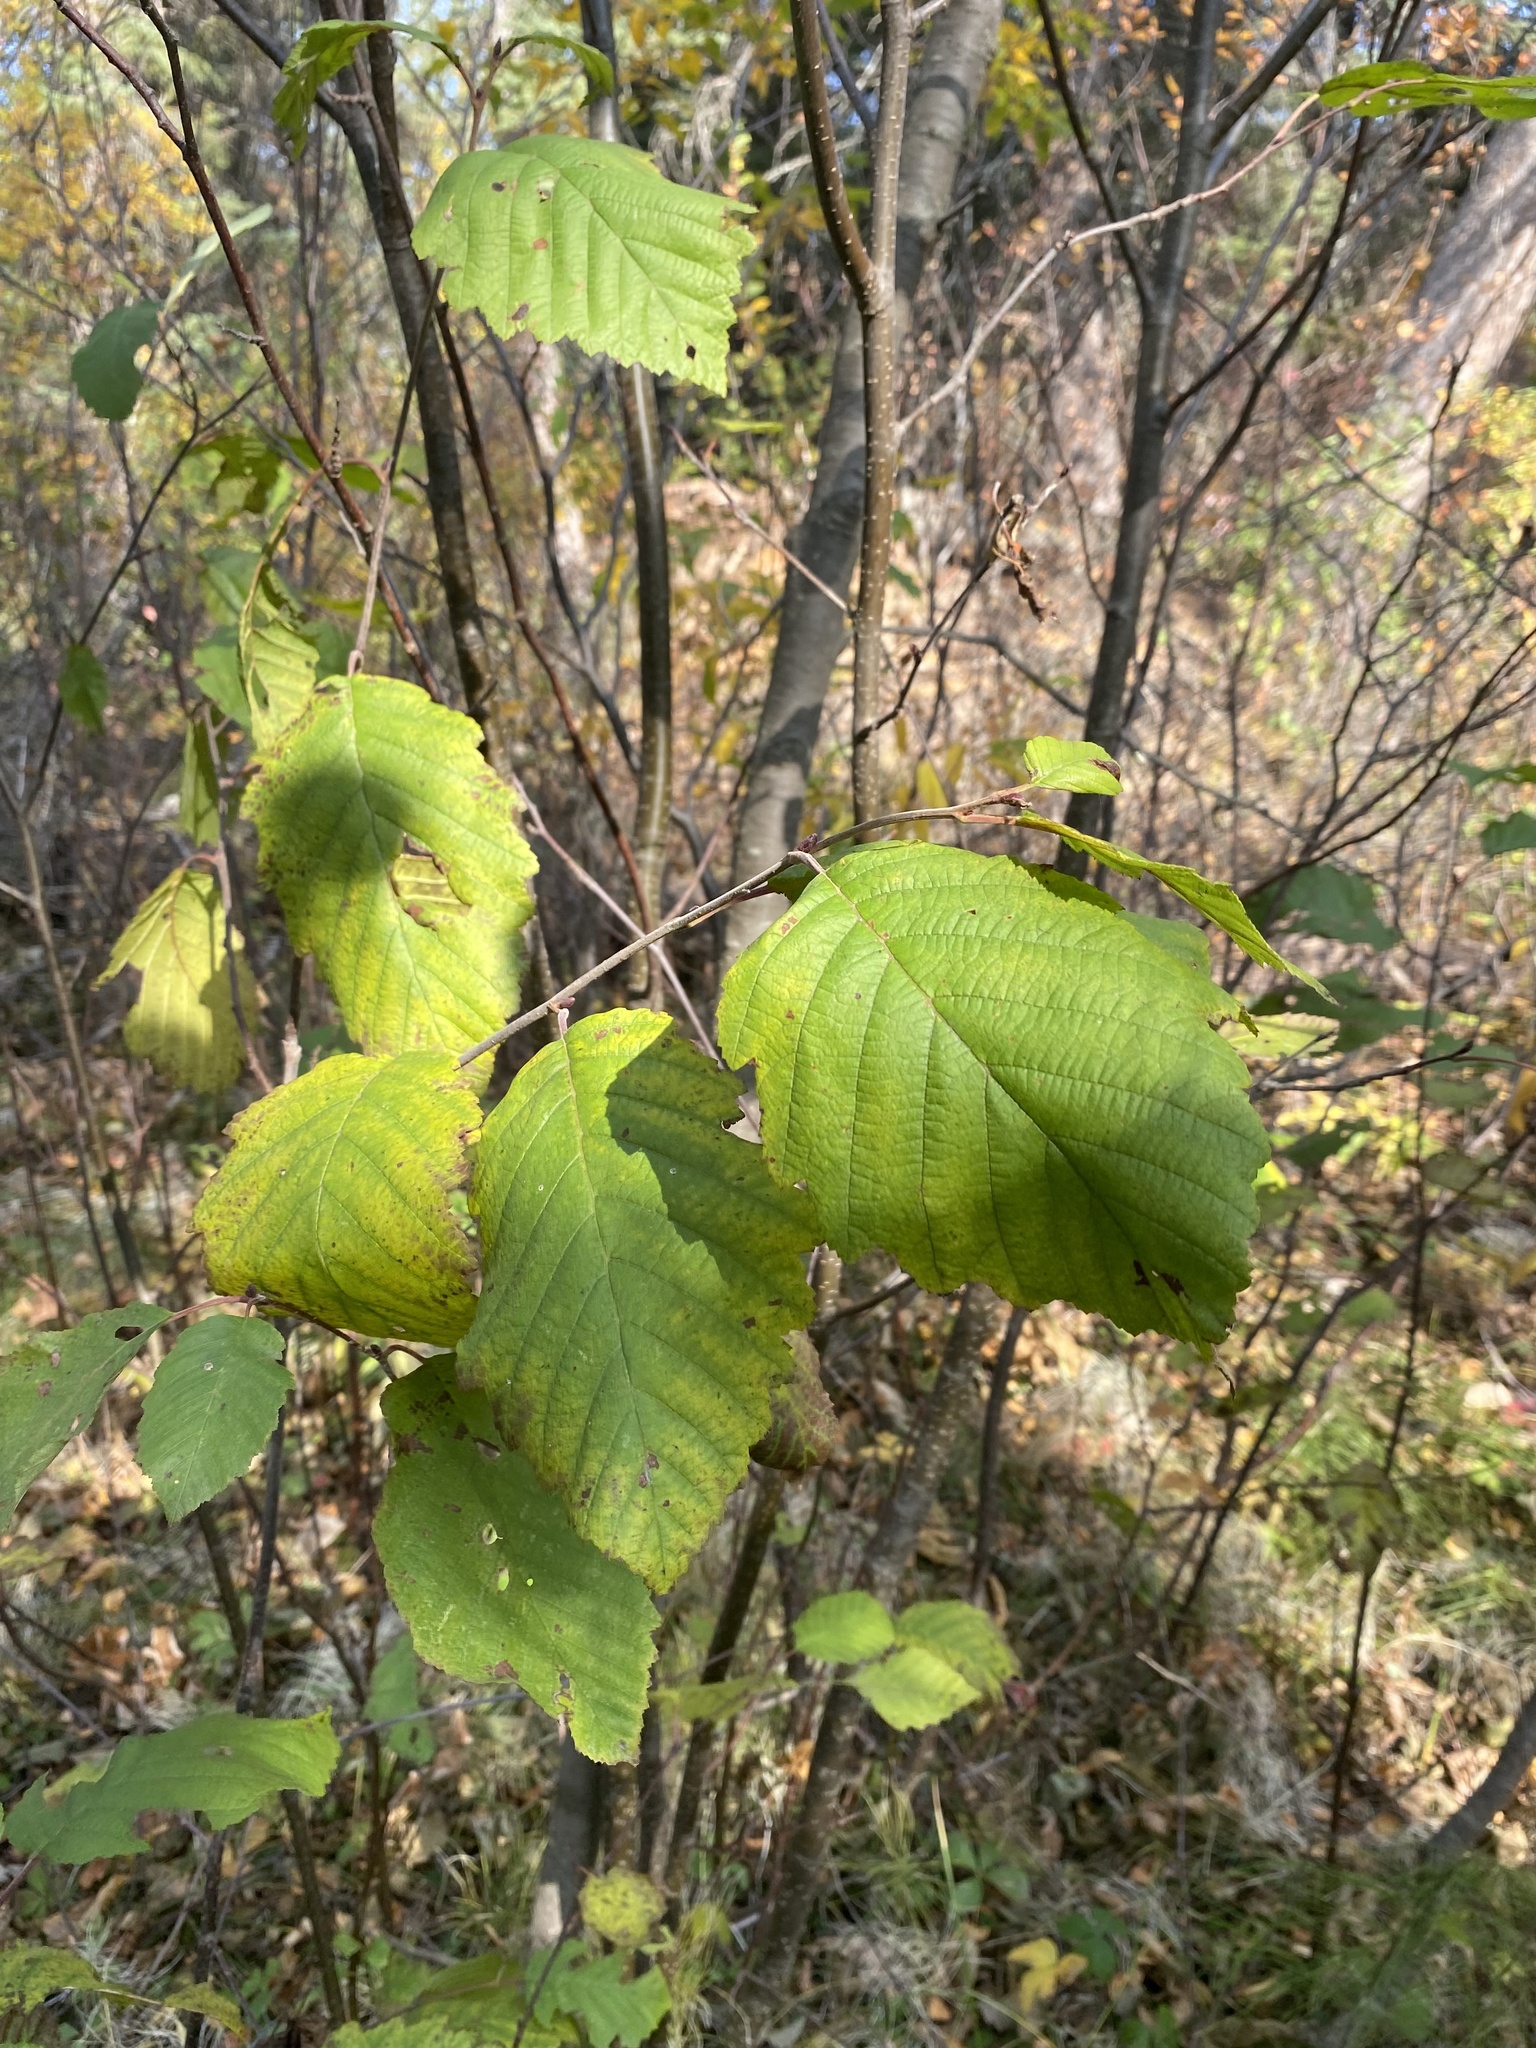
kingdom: Plantae
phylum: Tracheophyta
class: Magnoliopsida
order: Fagales
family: Betulaceae
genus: Alnus
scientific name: Alnus incana
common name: Grey alder
